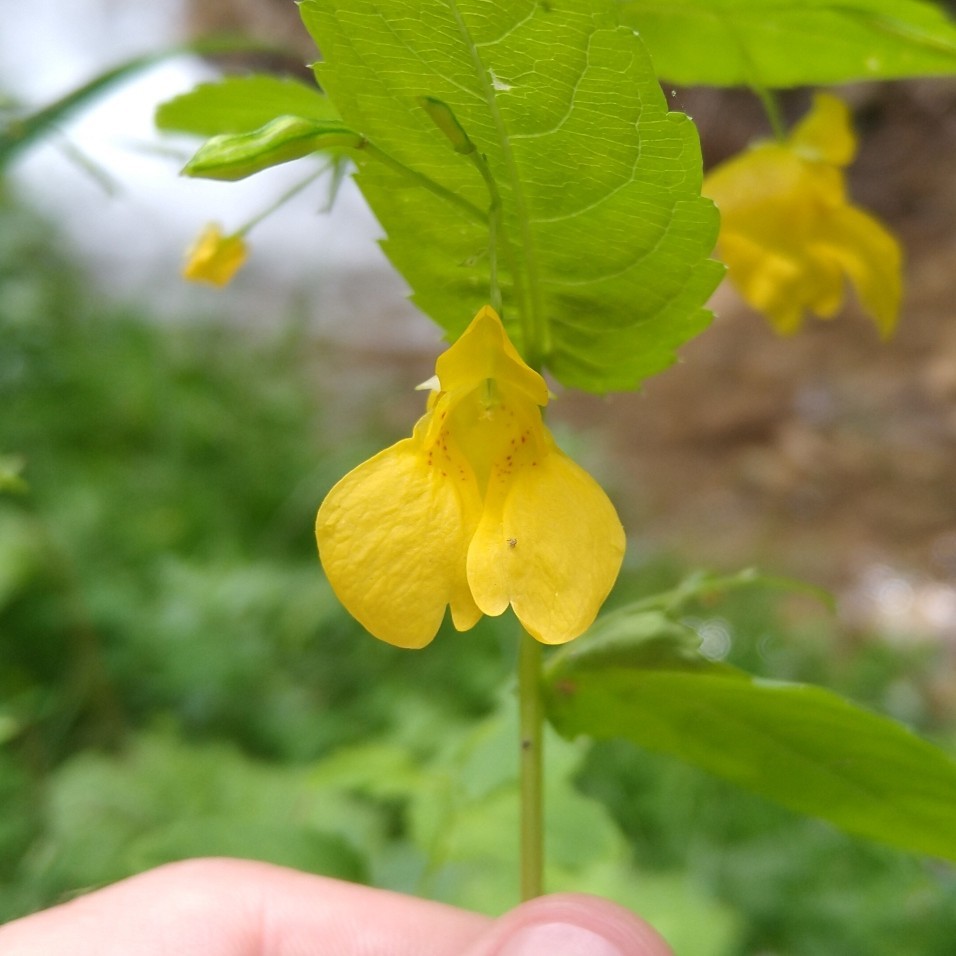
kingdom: Plantae
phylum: Tracheophyta
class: Magnoliopsida
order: Ericales
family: Balsaminaceae
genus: Impatiens
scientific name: Impatiens noli-tangere
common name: Touch-me-not balsam
